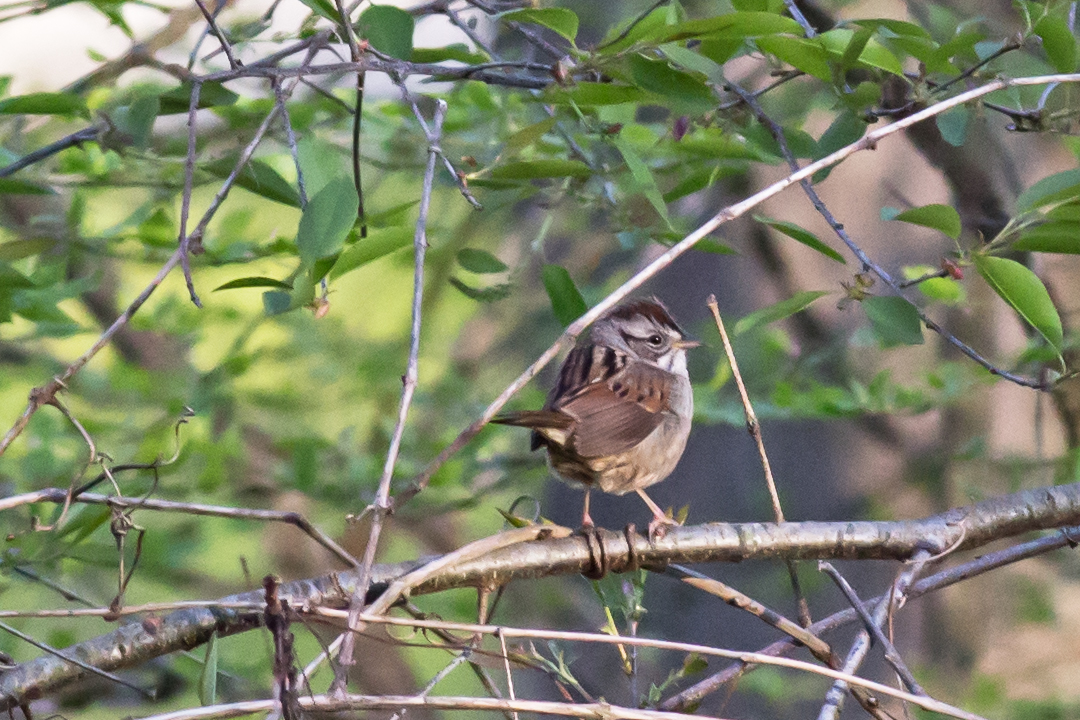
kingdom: Animalia
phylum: Chordata
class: Aves
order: Passeriformes
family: Passerellidae
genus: Melospiza
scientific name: Melospiza georgiana
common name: Swamp sparrow
